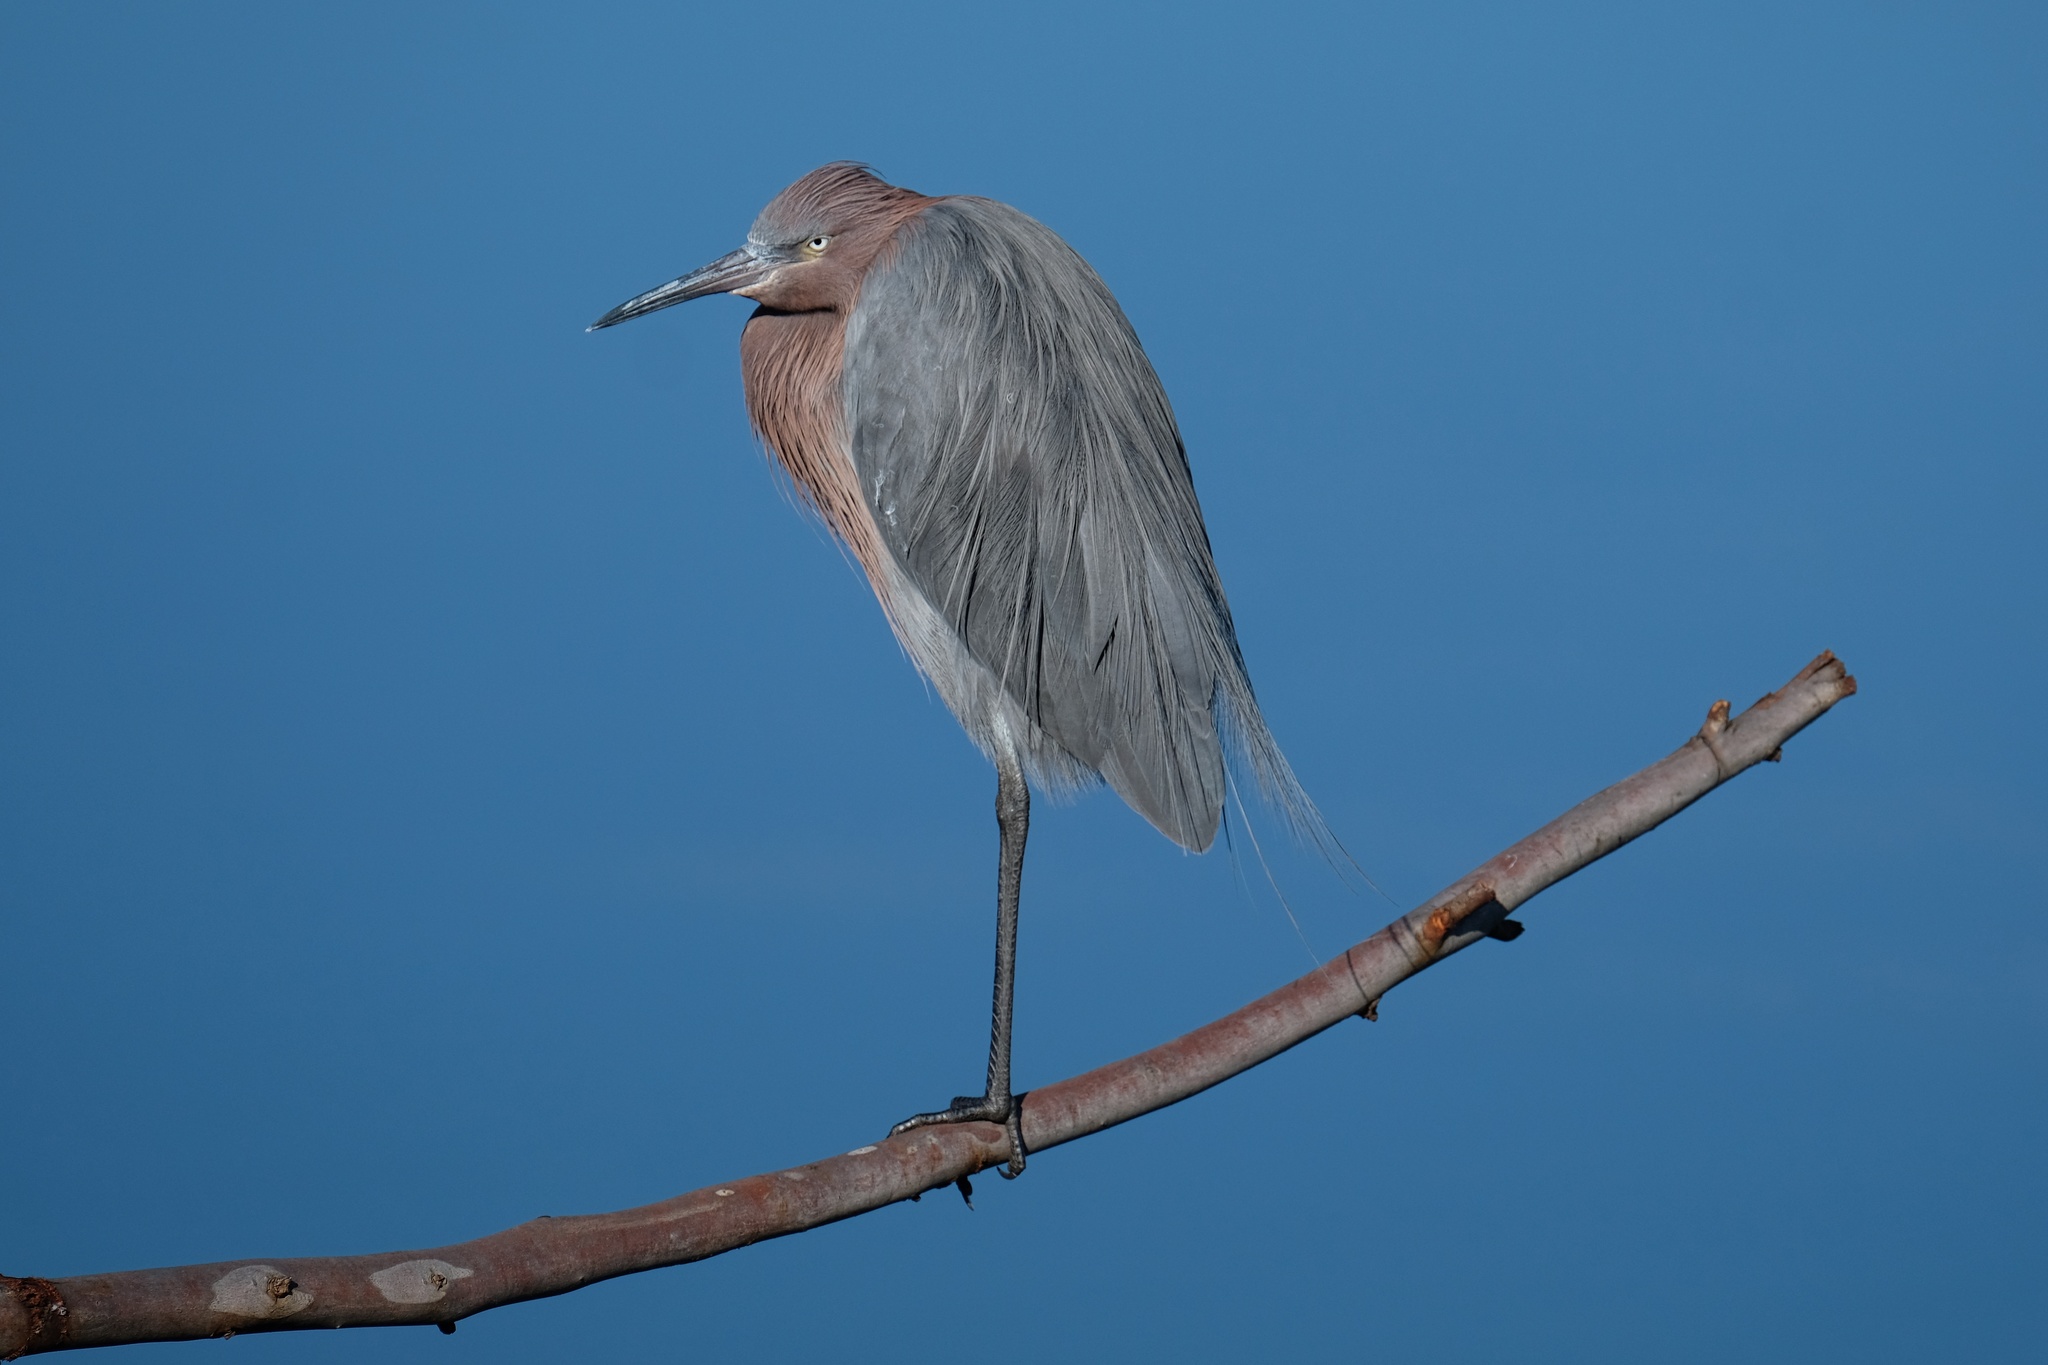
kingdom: Animalia
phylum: Chordata
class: Aves
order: Pelecaniformes
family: Ardeidae
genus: Egretta
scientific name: Egretta rufescens
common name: Reddish egret
